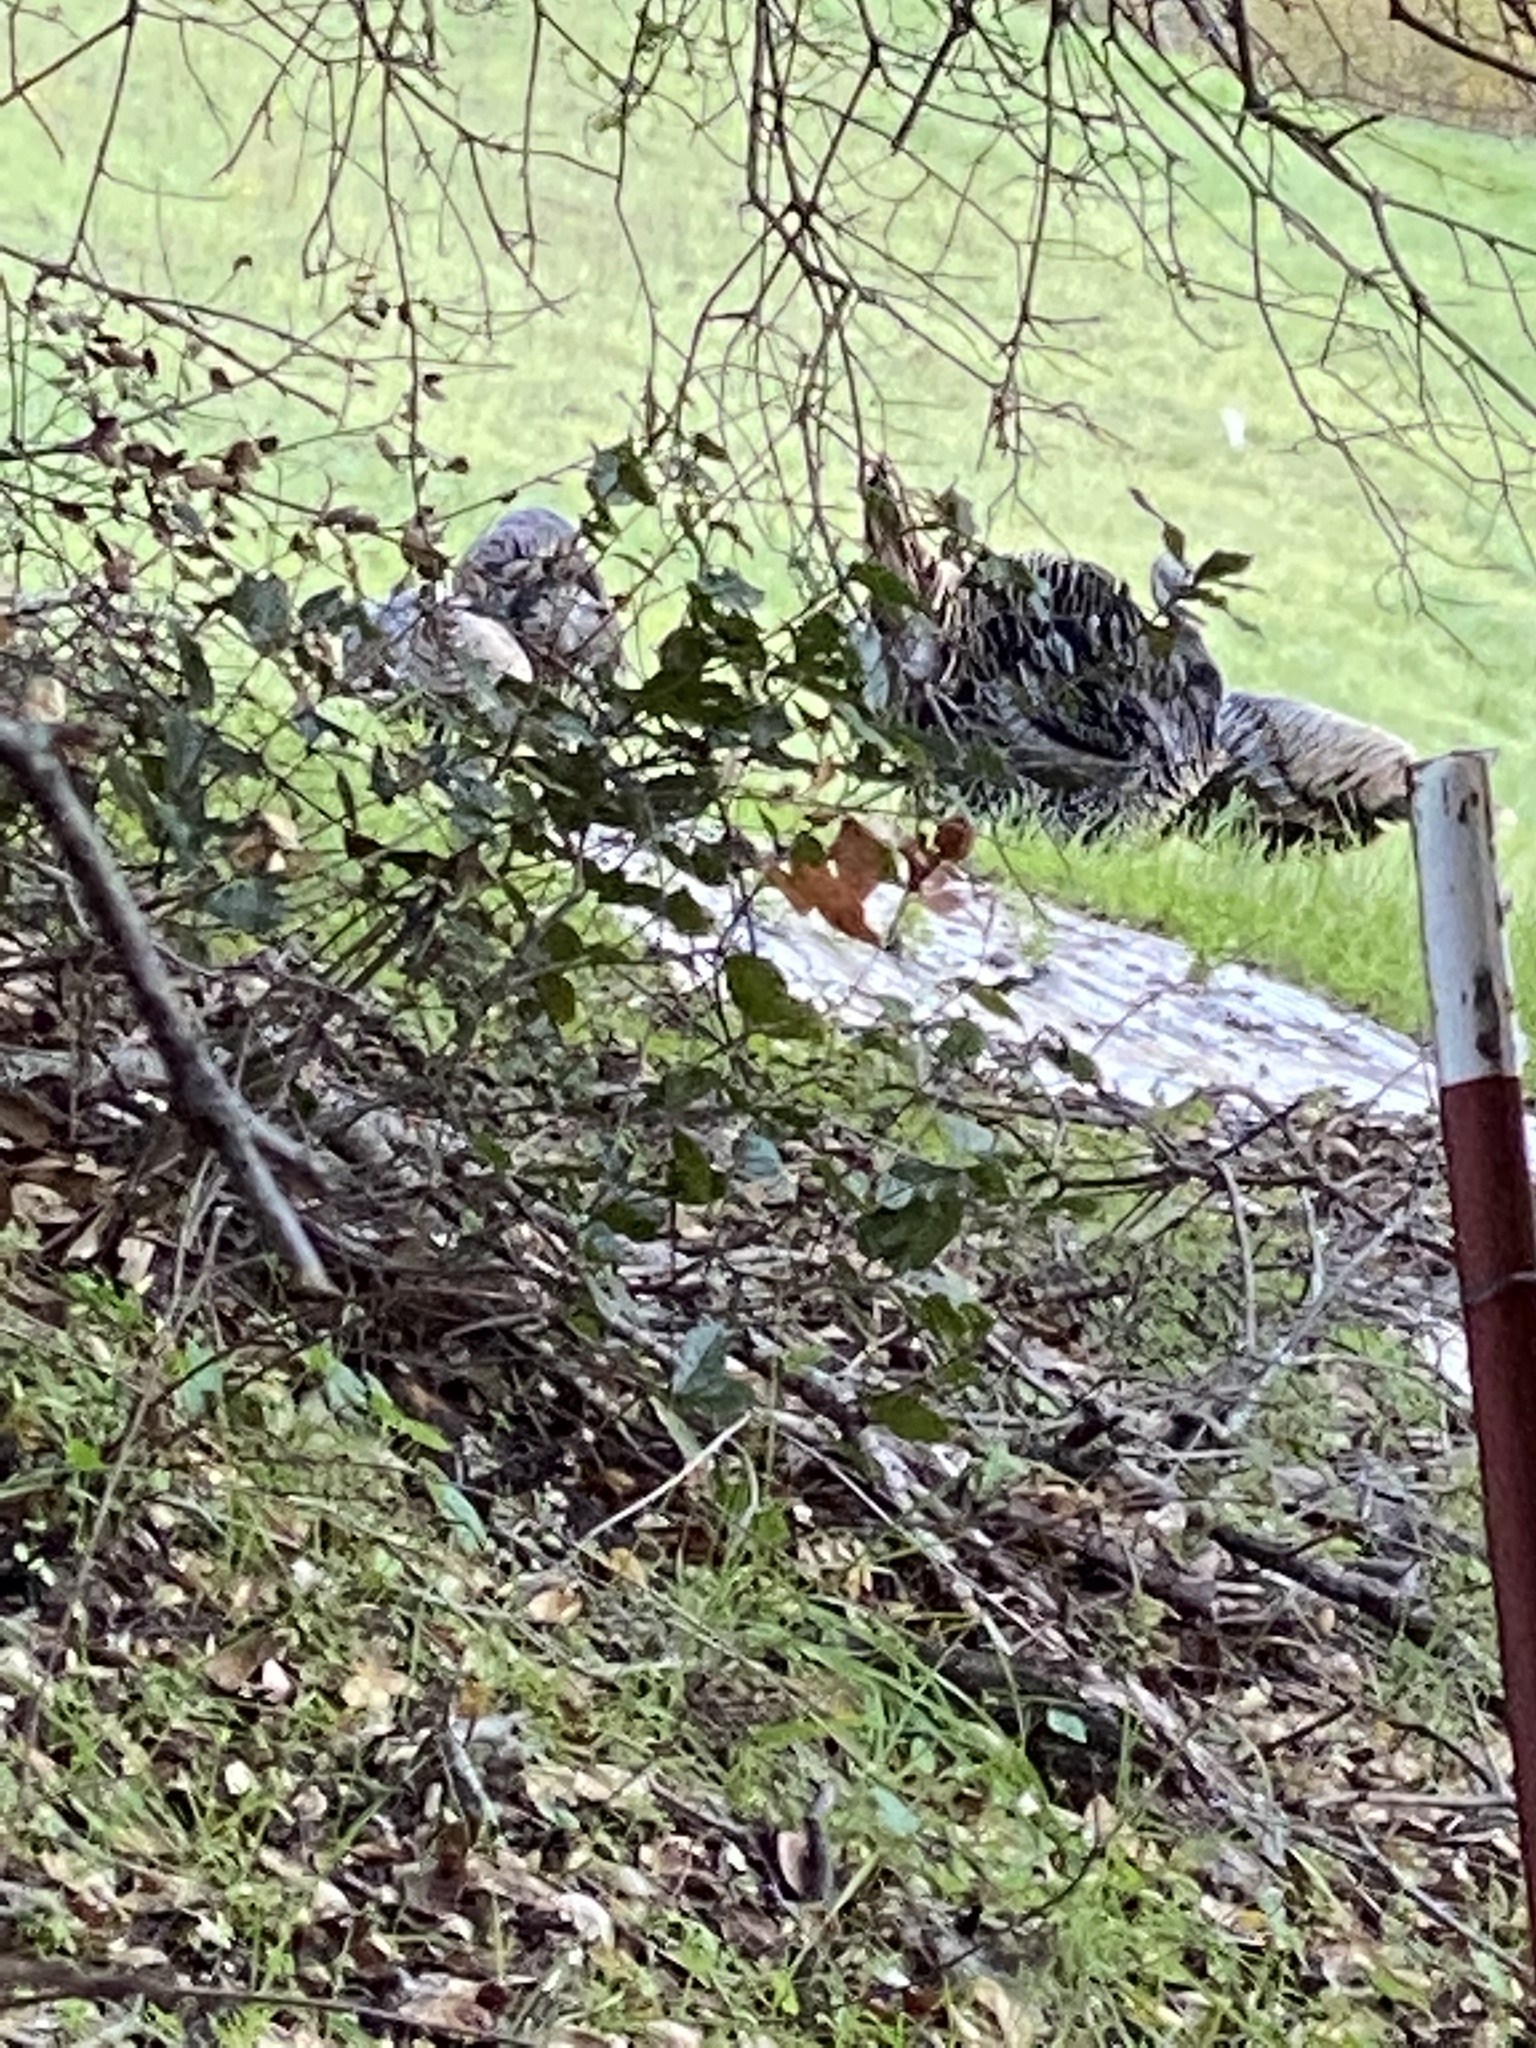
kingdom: Animalia
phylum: Chordata
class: Aves
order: Galliformes
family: Phasianidae
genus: Meleagris
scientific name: Meleagris gallopavo
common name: Wild turkey
